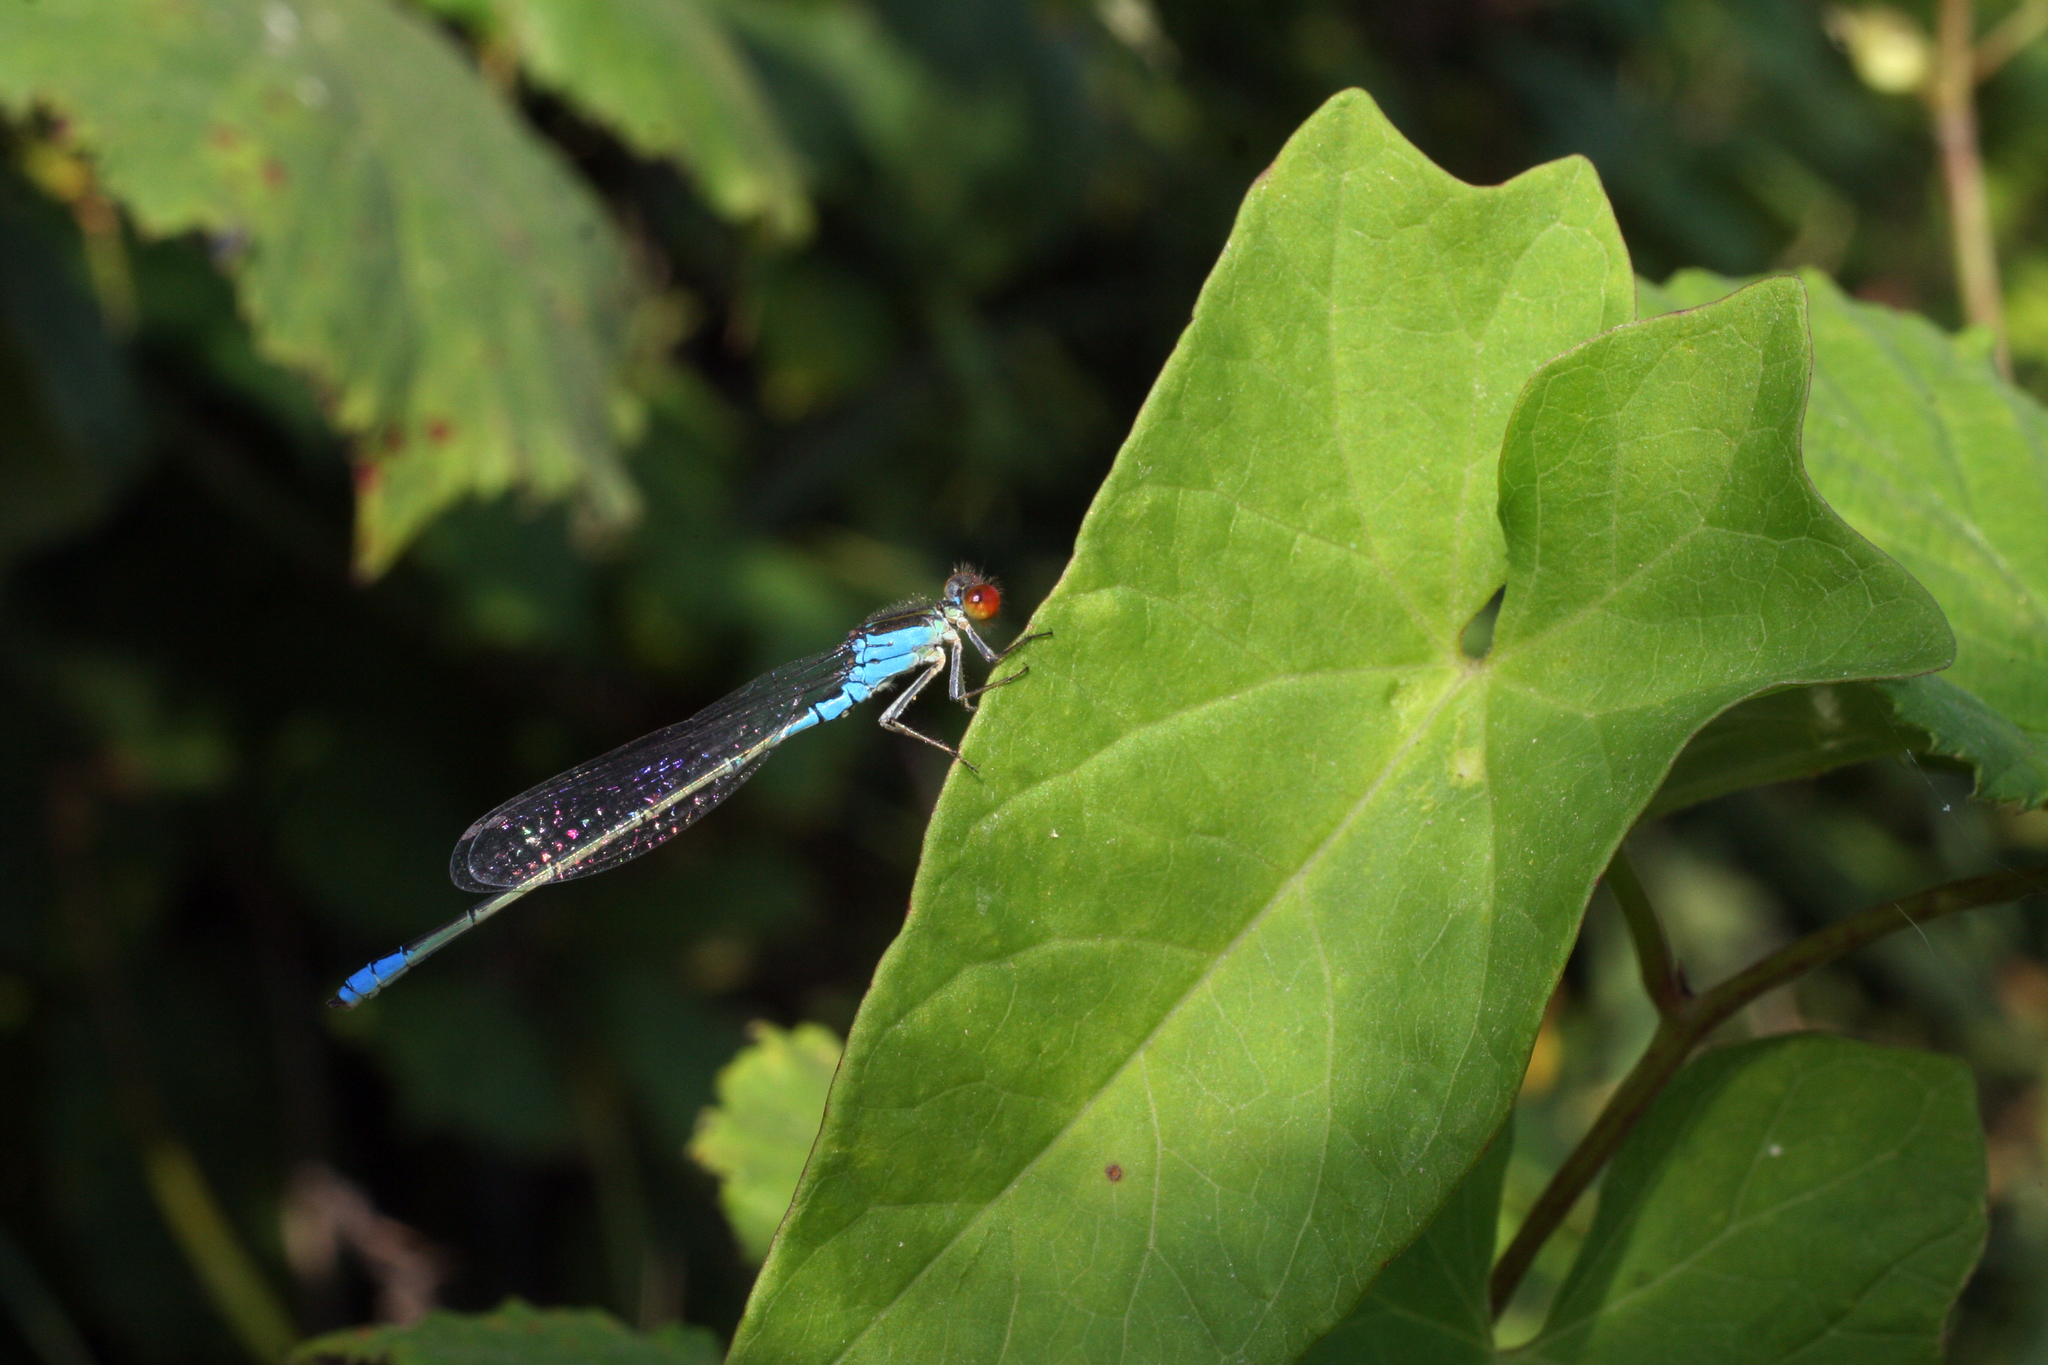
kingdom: Animalia
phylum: Arthropoda
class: Insecta
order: Odonata
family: Coenagrionidae
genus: Erythromma
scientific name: Erythromma viridulum
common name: Small red-eyed damselfly
